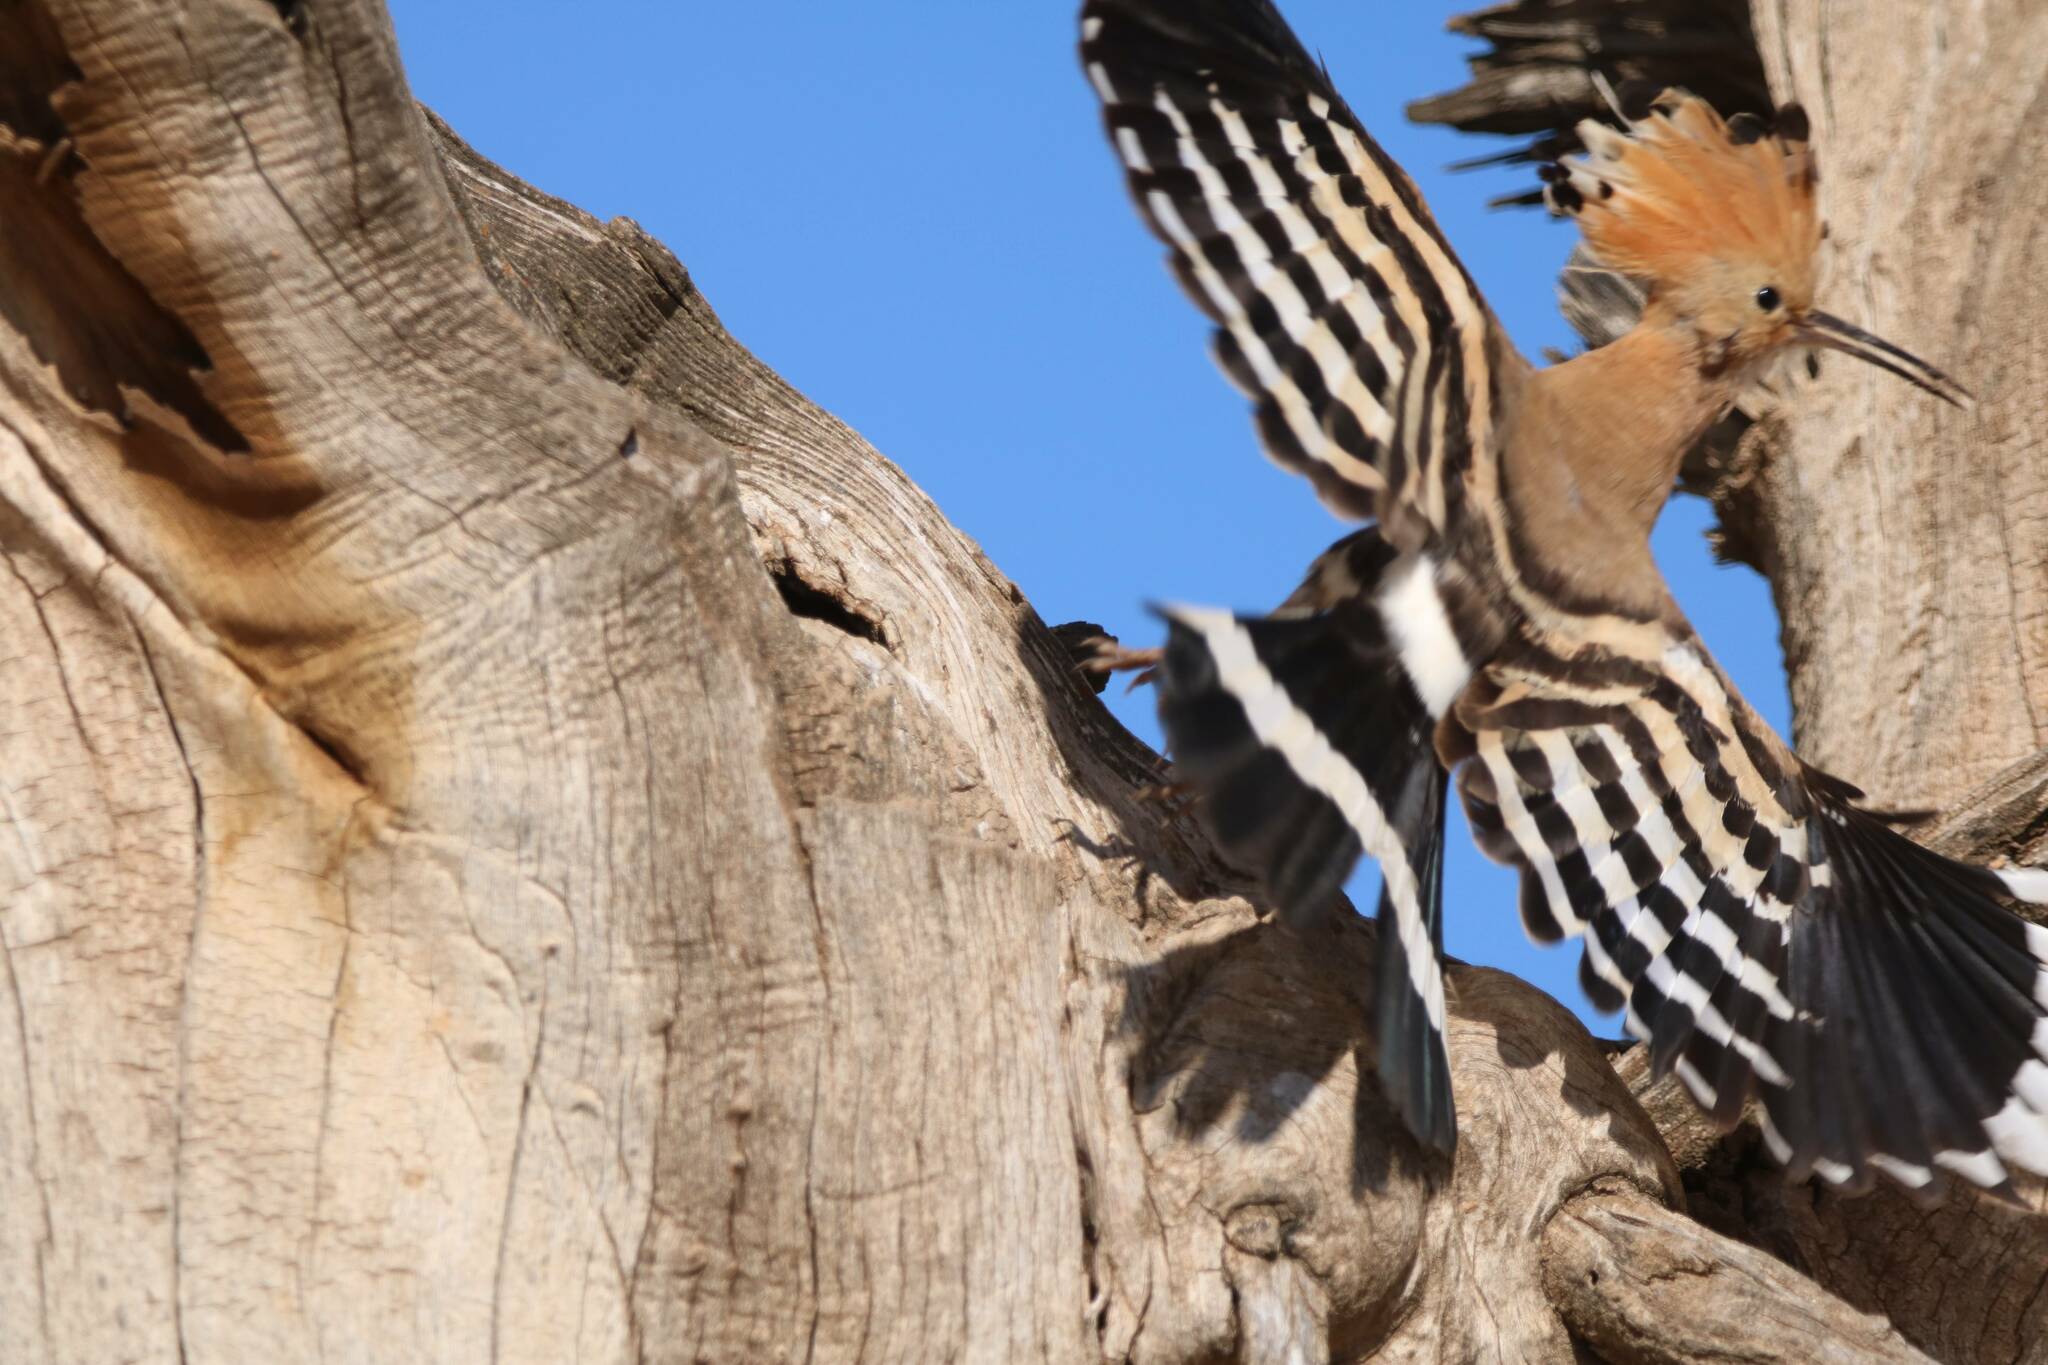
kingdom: Animalia
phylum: Chordata
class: Aves
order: Bucerotiformes
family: Upupidae
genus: Upupa
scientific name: Upupa epops
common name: Eurasian hoopoe
